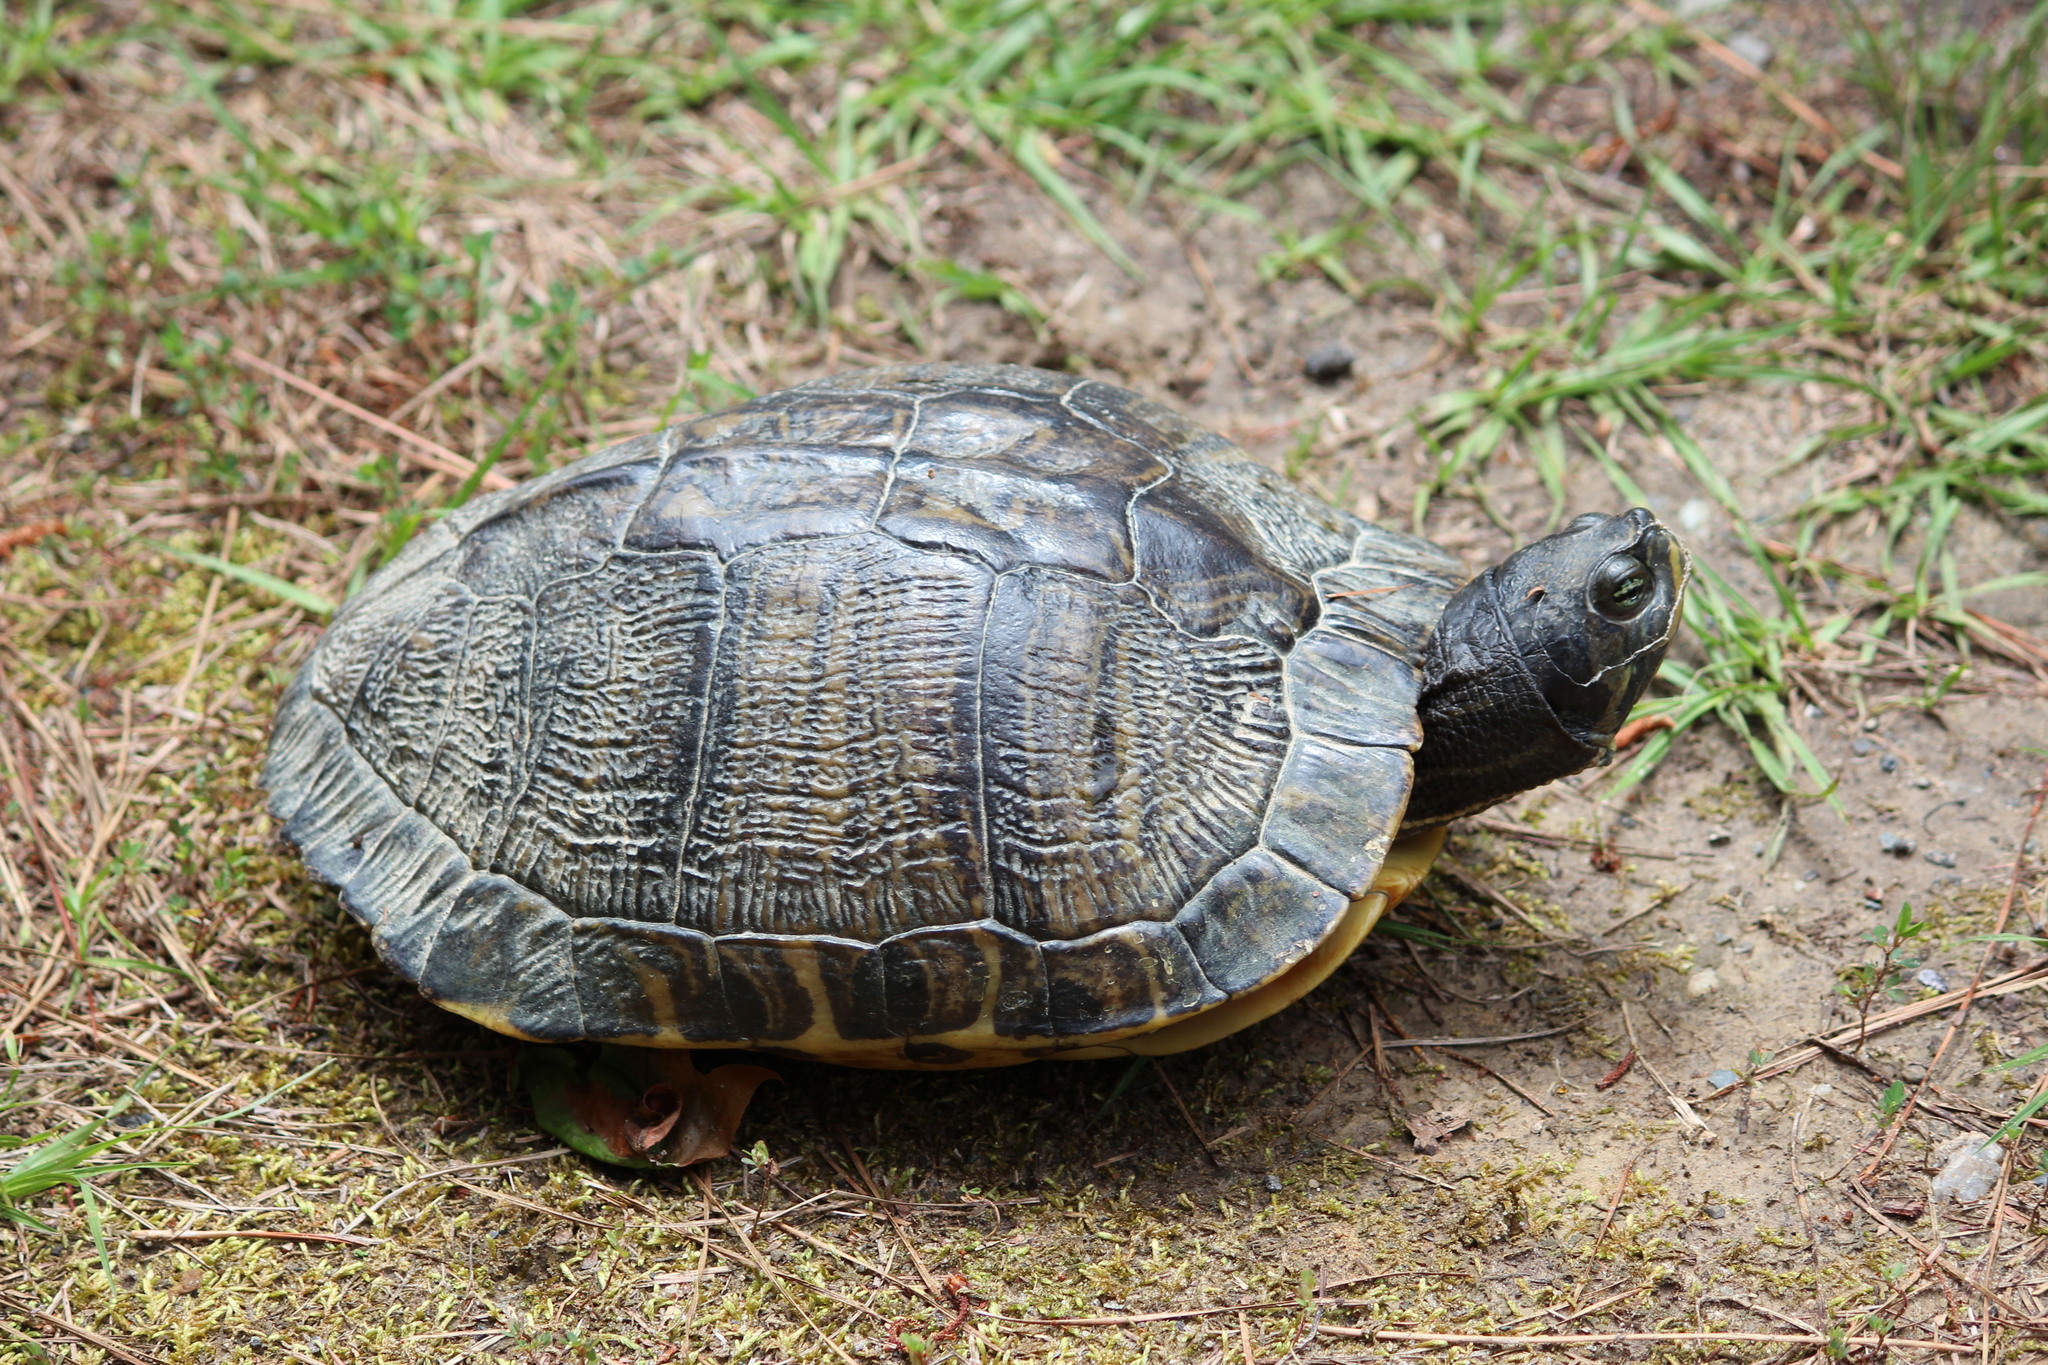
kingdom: Animalia
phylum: Chordata
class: Testudines
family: Emydidae
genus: Trachemys
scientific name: Trachemys scripta
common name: Slider
